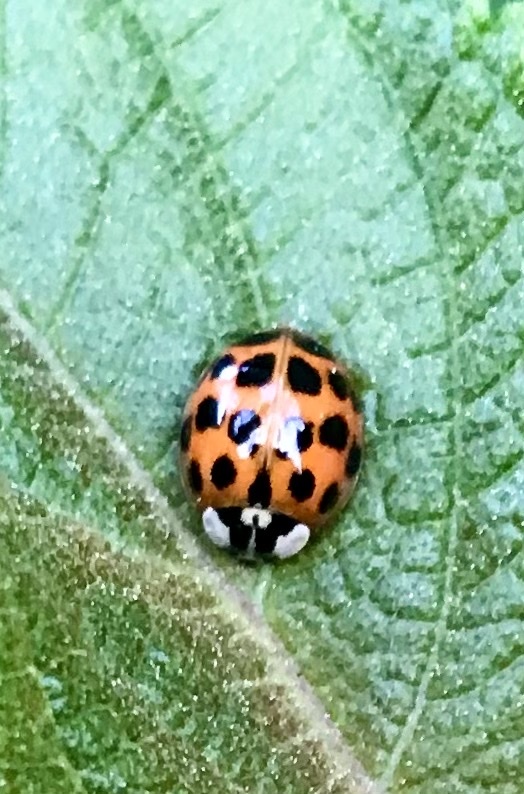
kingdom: Animalia
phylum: Arthropoda
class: Insecta
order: Coleoptera
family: Coccinellidae
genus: Harmonia
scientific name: Harmonia axyridis
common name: Harlequin ladybird
